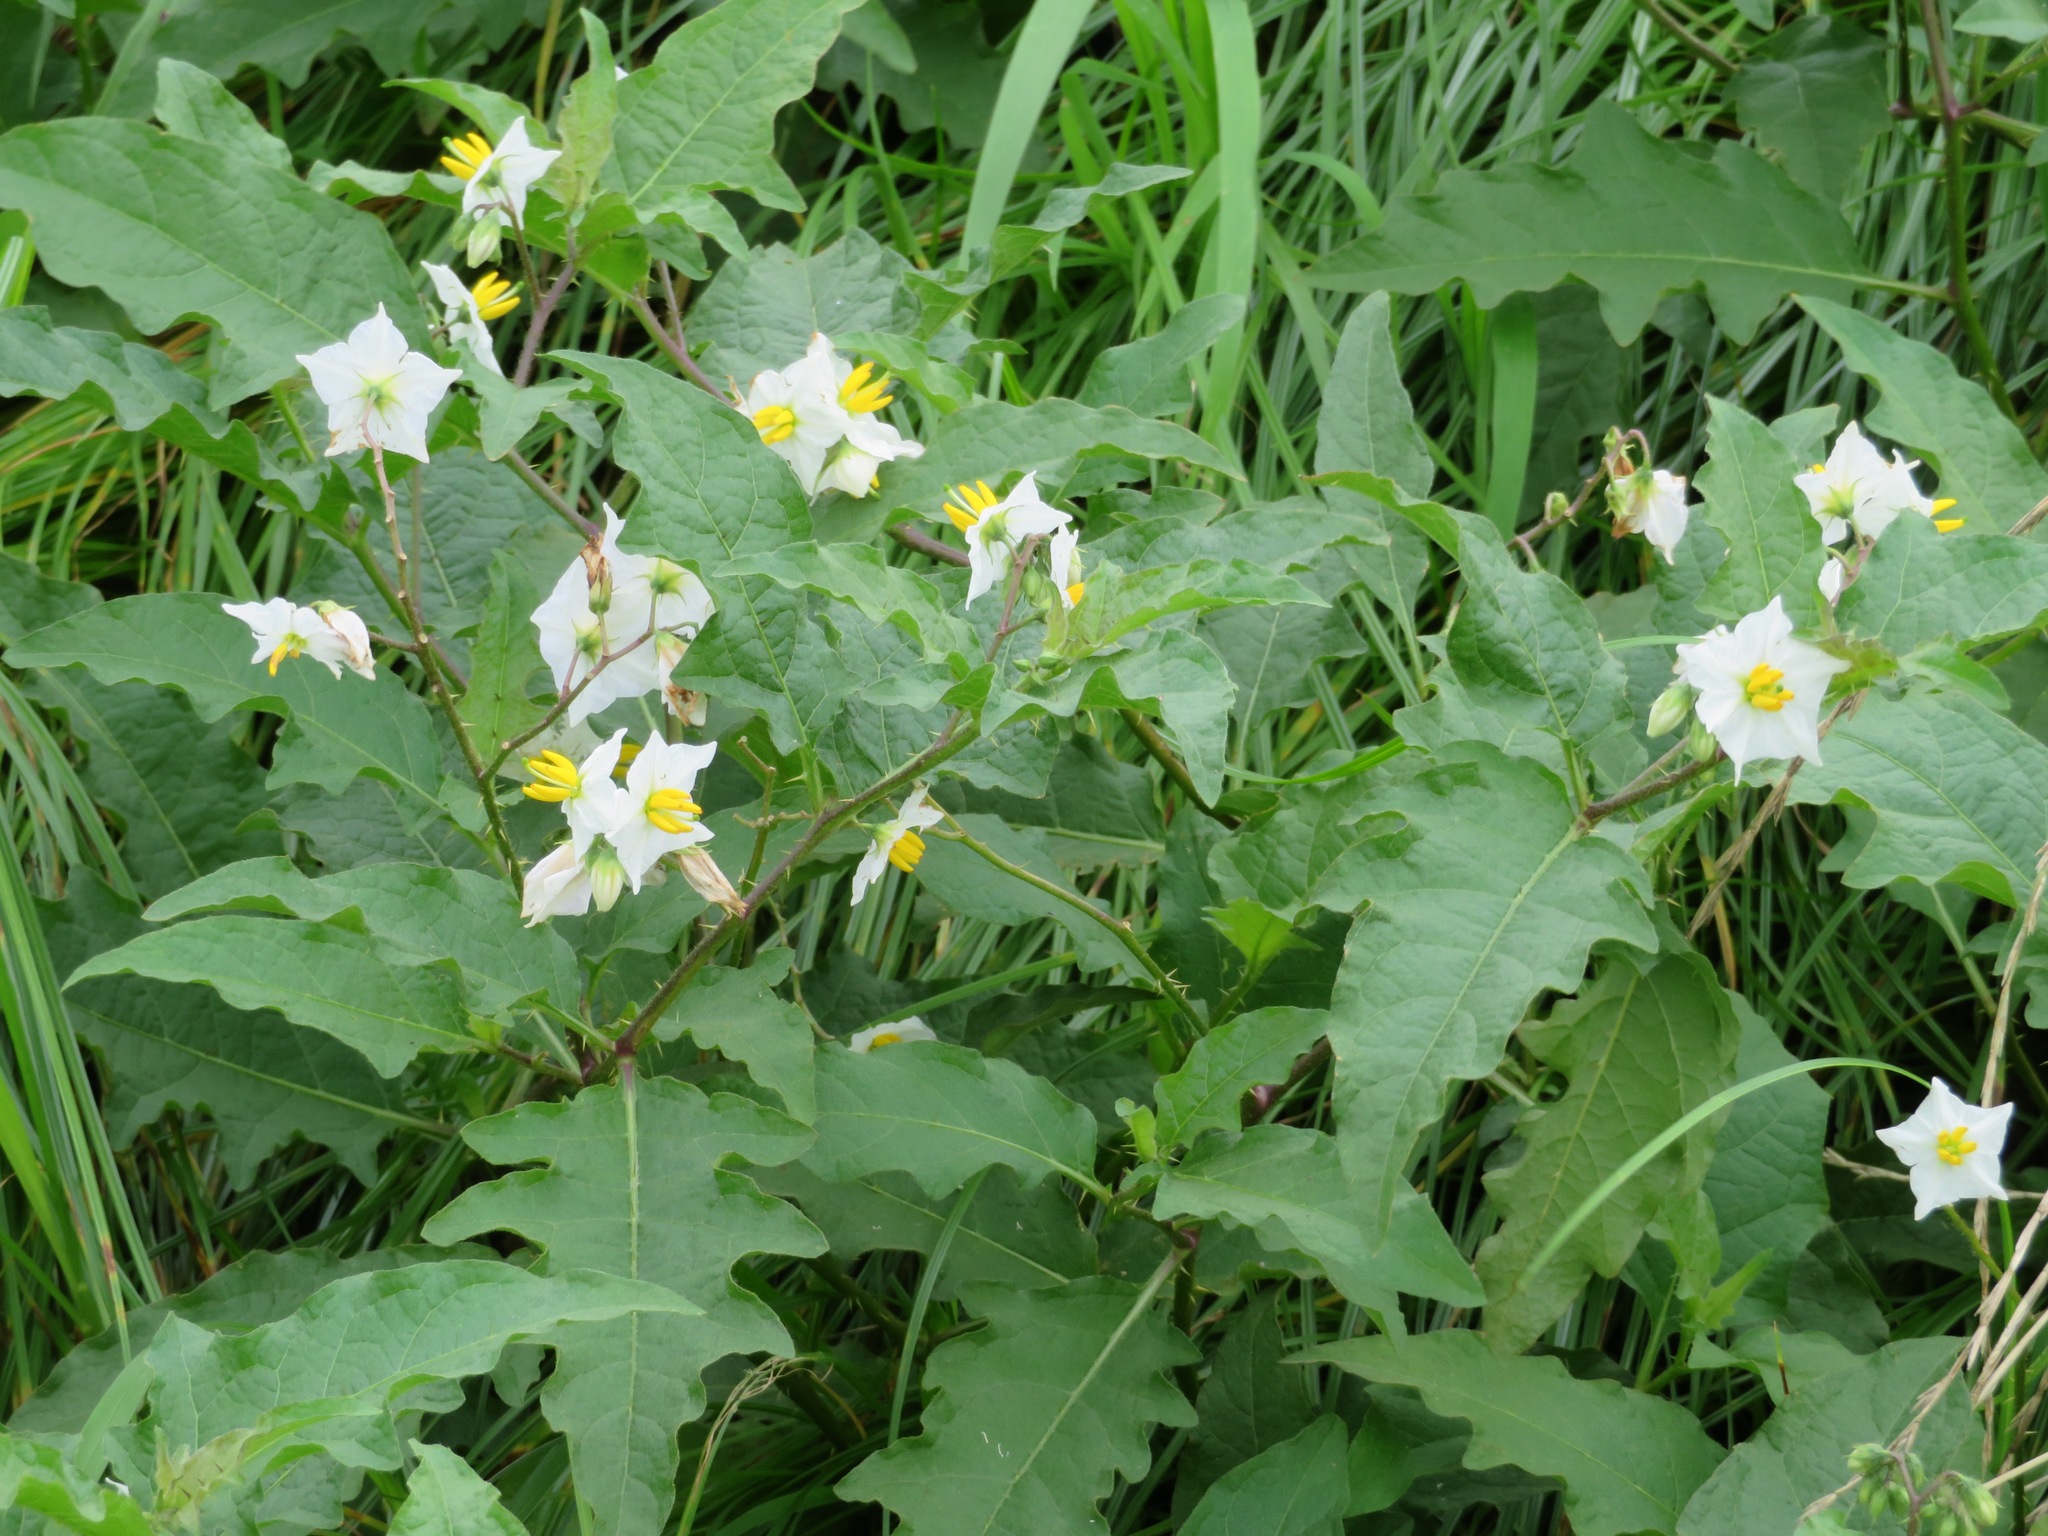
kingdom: Plantae
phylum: Tracheophyta
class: Magnoliopsida
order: Solanales
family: Solanaceae
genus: Solanum
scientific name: Solanum carolinense
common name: Horse-nettle
